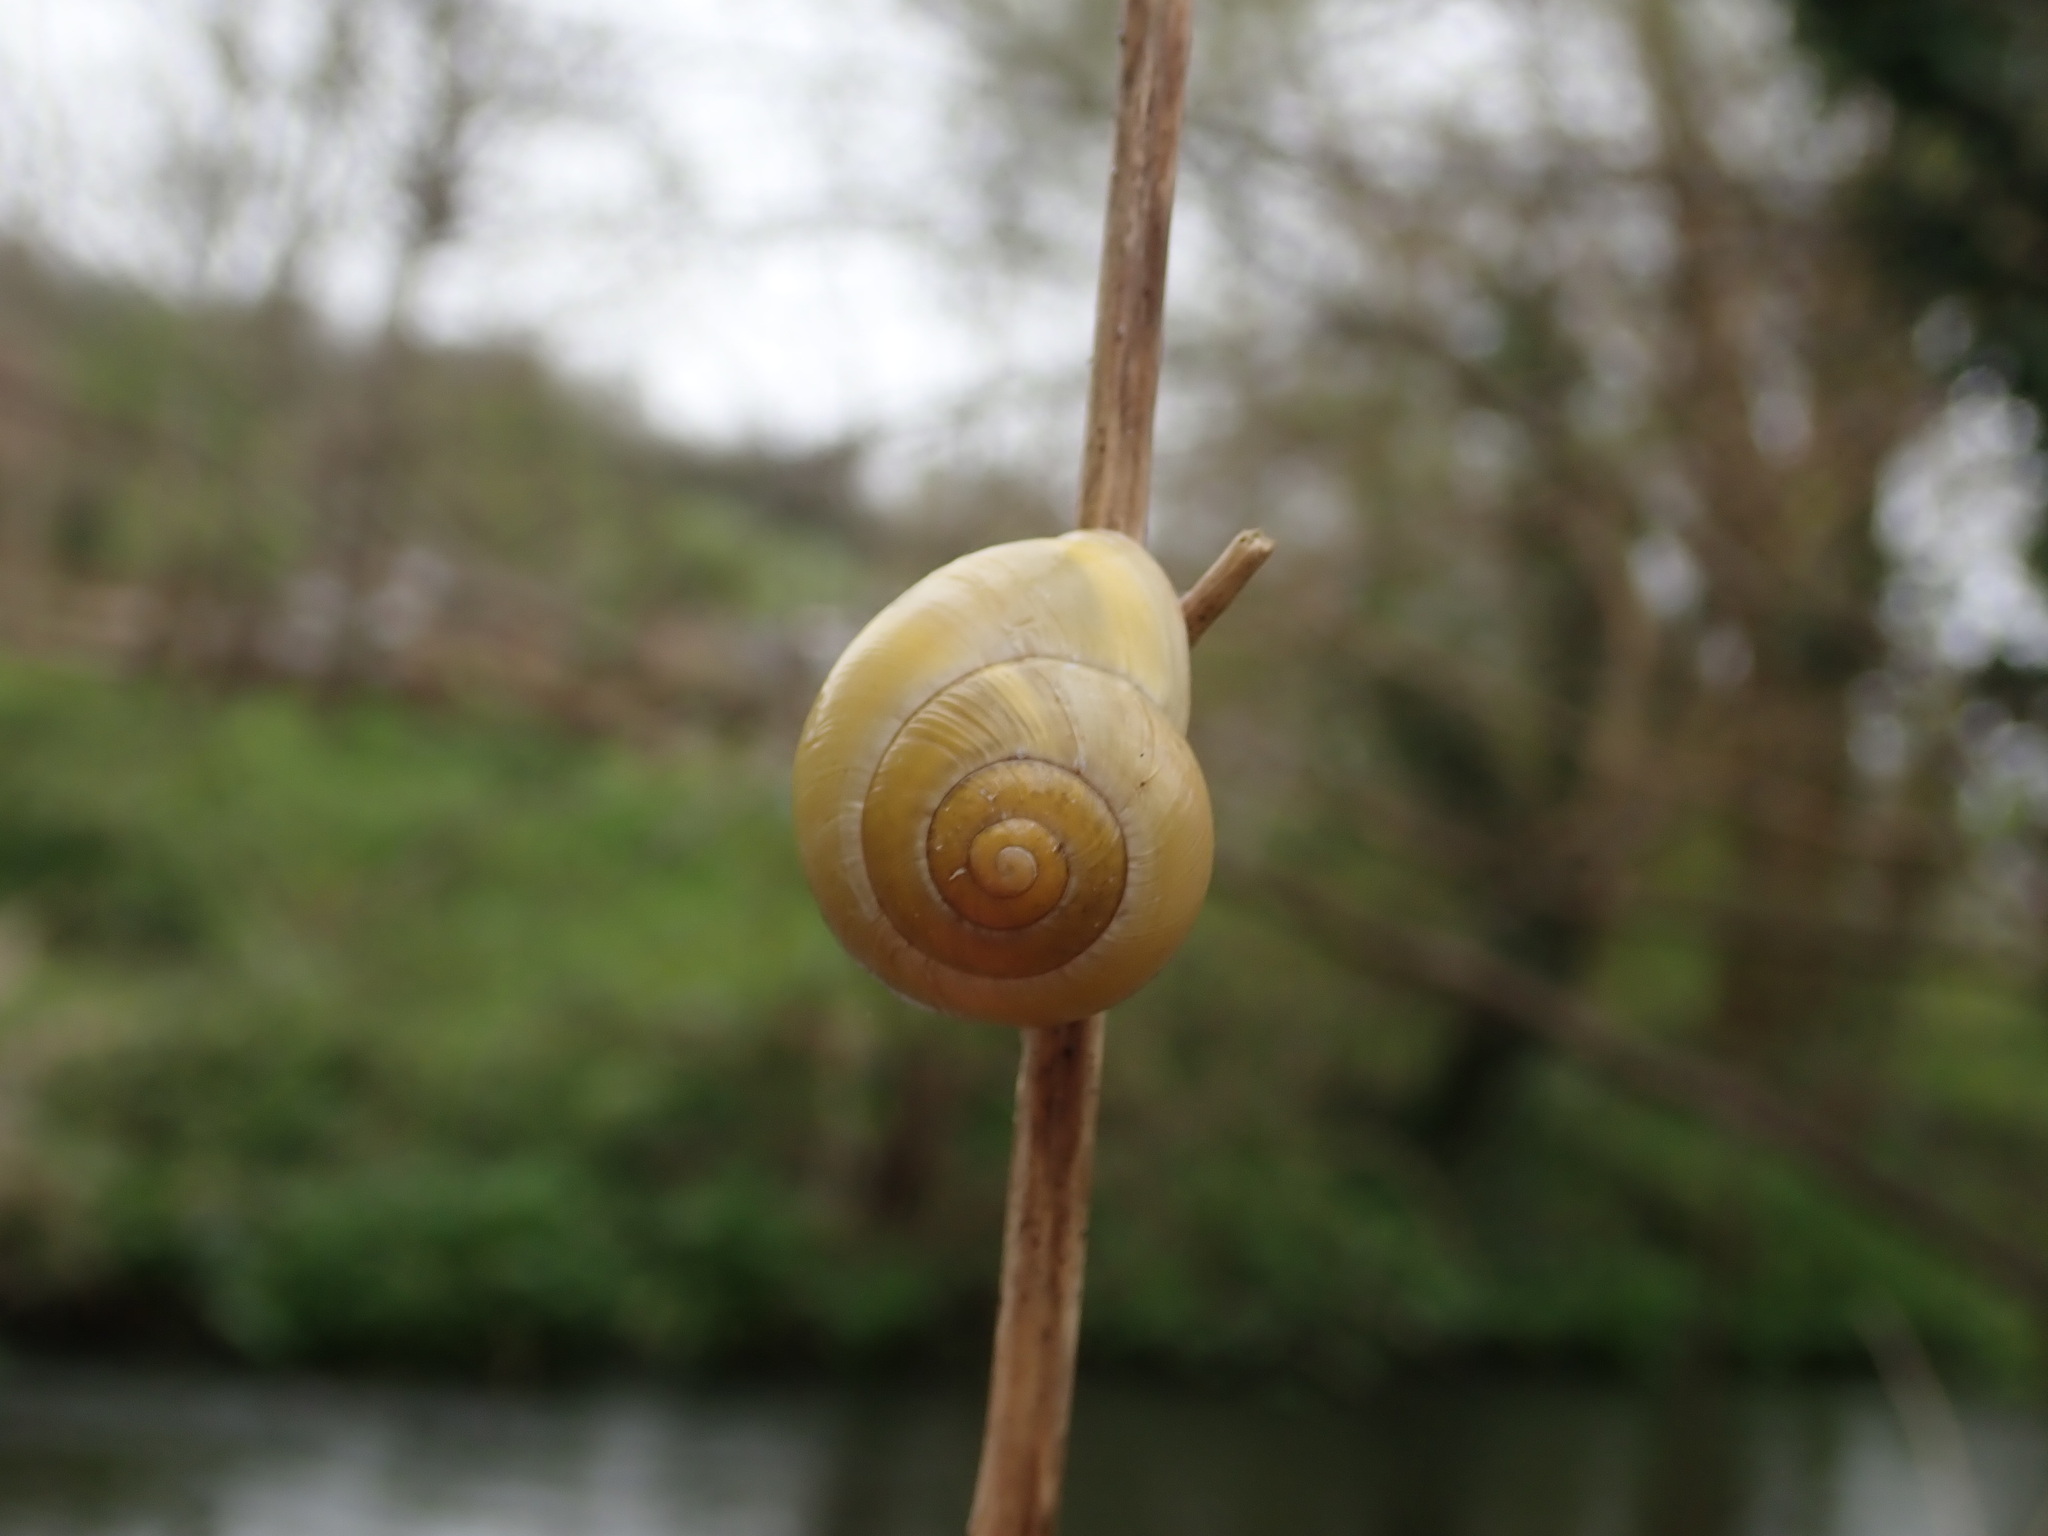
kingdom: Animalia
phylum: Mollusca
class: Gastropoda
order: Stylommatophora
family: Helicidae
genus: Cepaea
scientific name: Cepaea hortensis
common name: White-lip gardensnail
